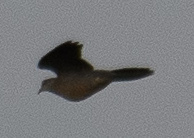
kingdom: Animalia
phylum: Chordata
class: Aves
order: Columbiformes
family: Columbidae
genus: Spilopelia
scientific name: Spilopelia chinensis
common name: Spotted dove
